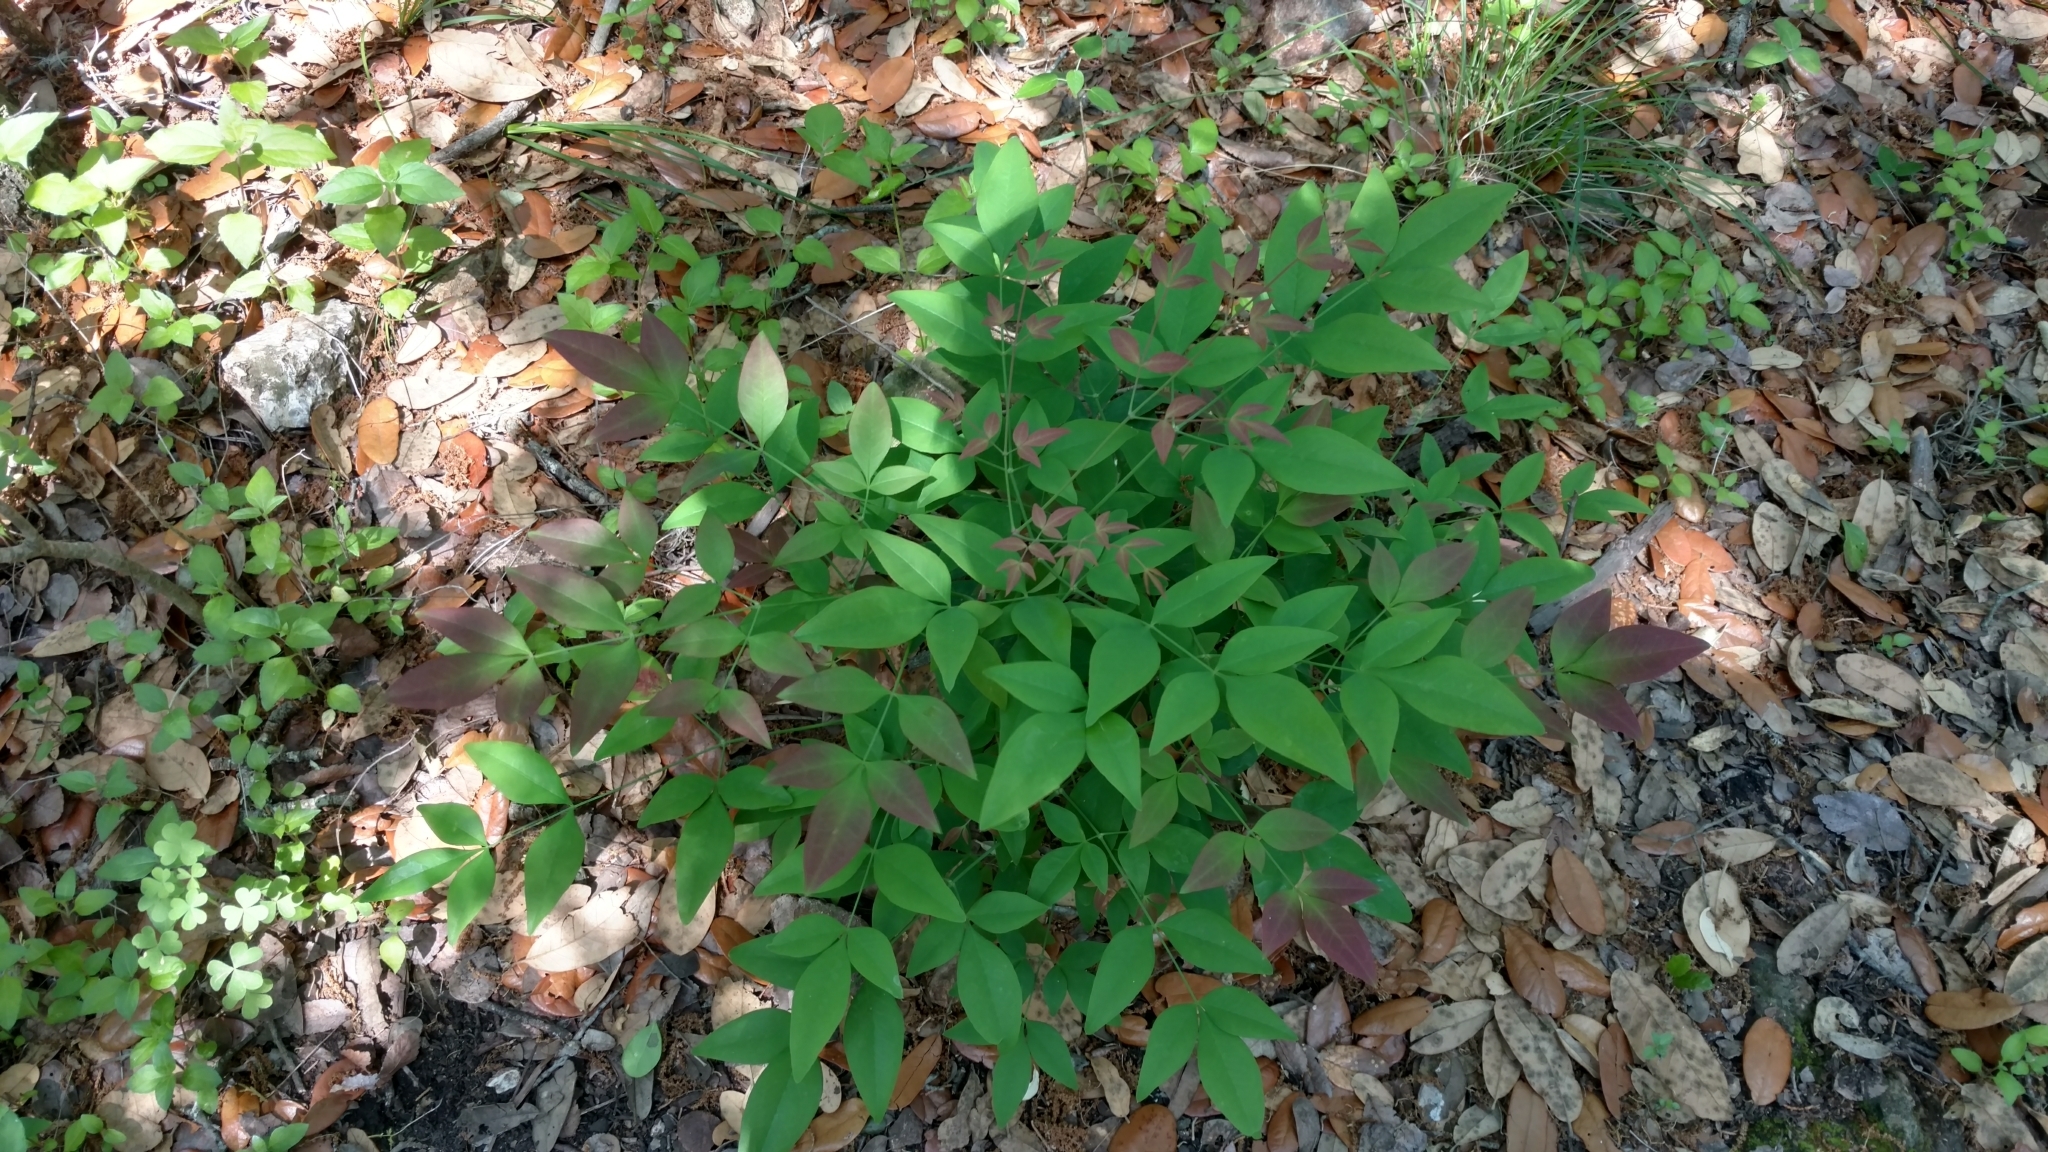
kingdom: Plantae
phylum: Tracheophyta
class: Magnoliopsida
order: Ranunculales
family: Berberidaceae
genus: Nandina
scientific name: Nandina domestica
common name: Sacred bamboo
